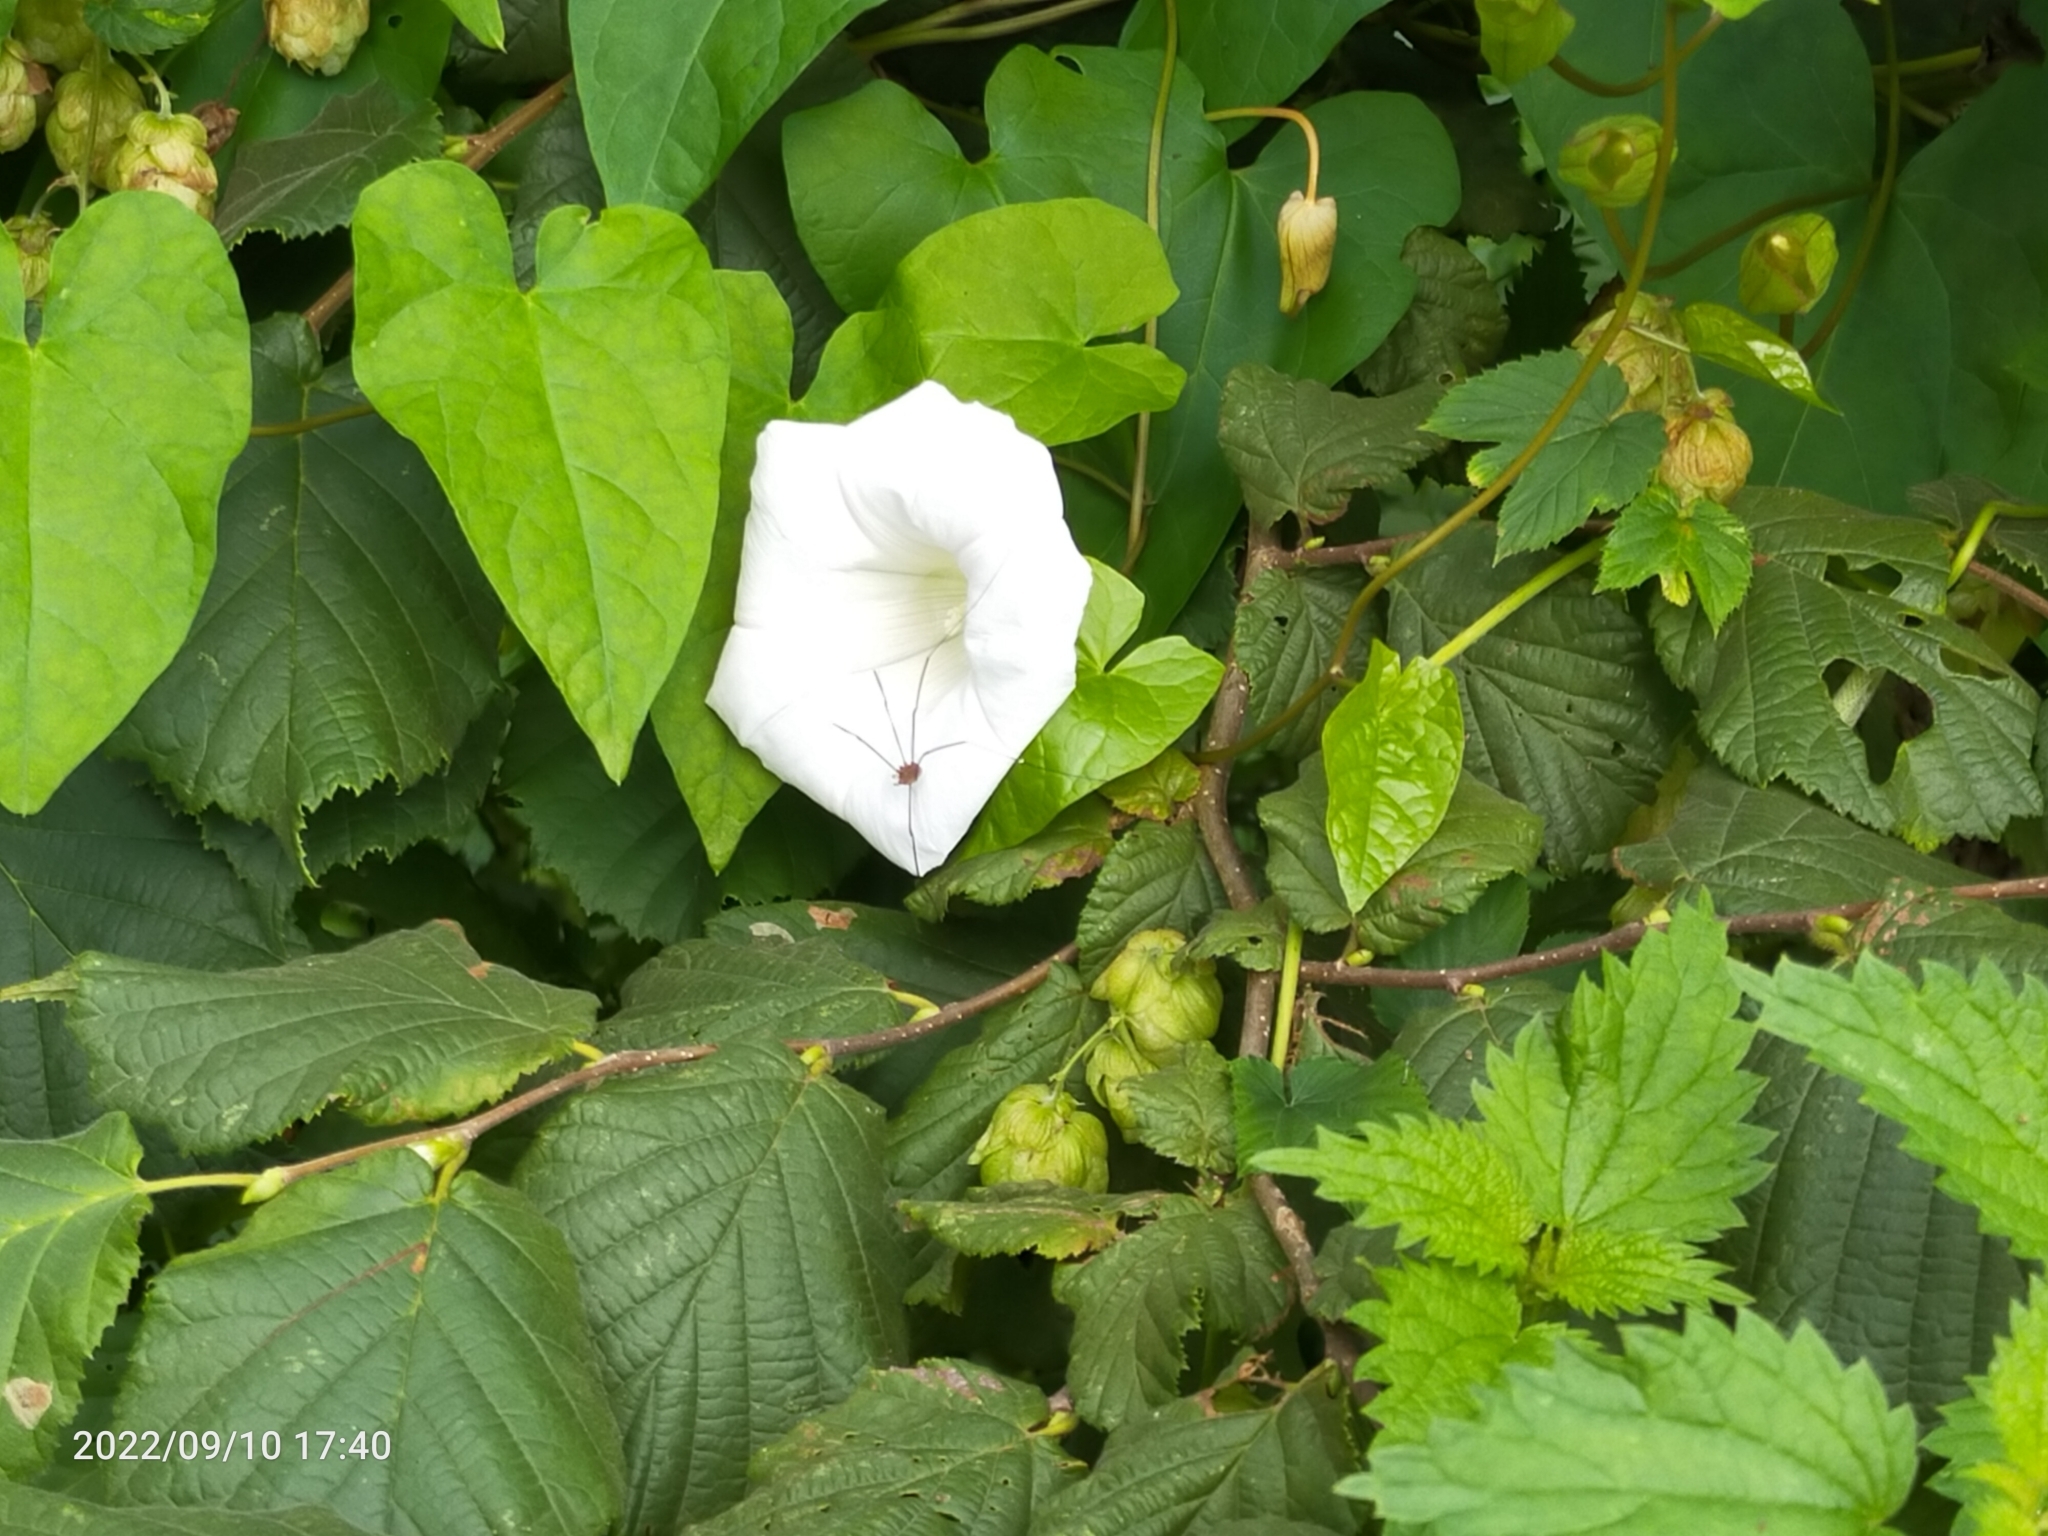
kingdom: Plantae
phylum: Tracheophyta
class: Magnoliopsida
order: Solanales
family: Convolvulaceae
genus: Calystegia
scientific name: Calystegia silvatica
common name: Large bindweed
